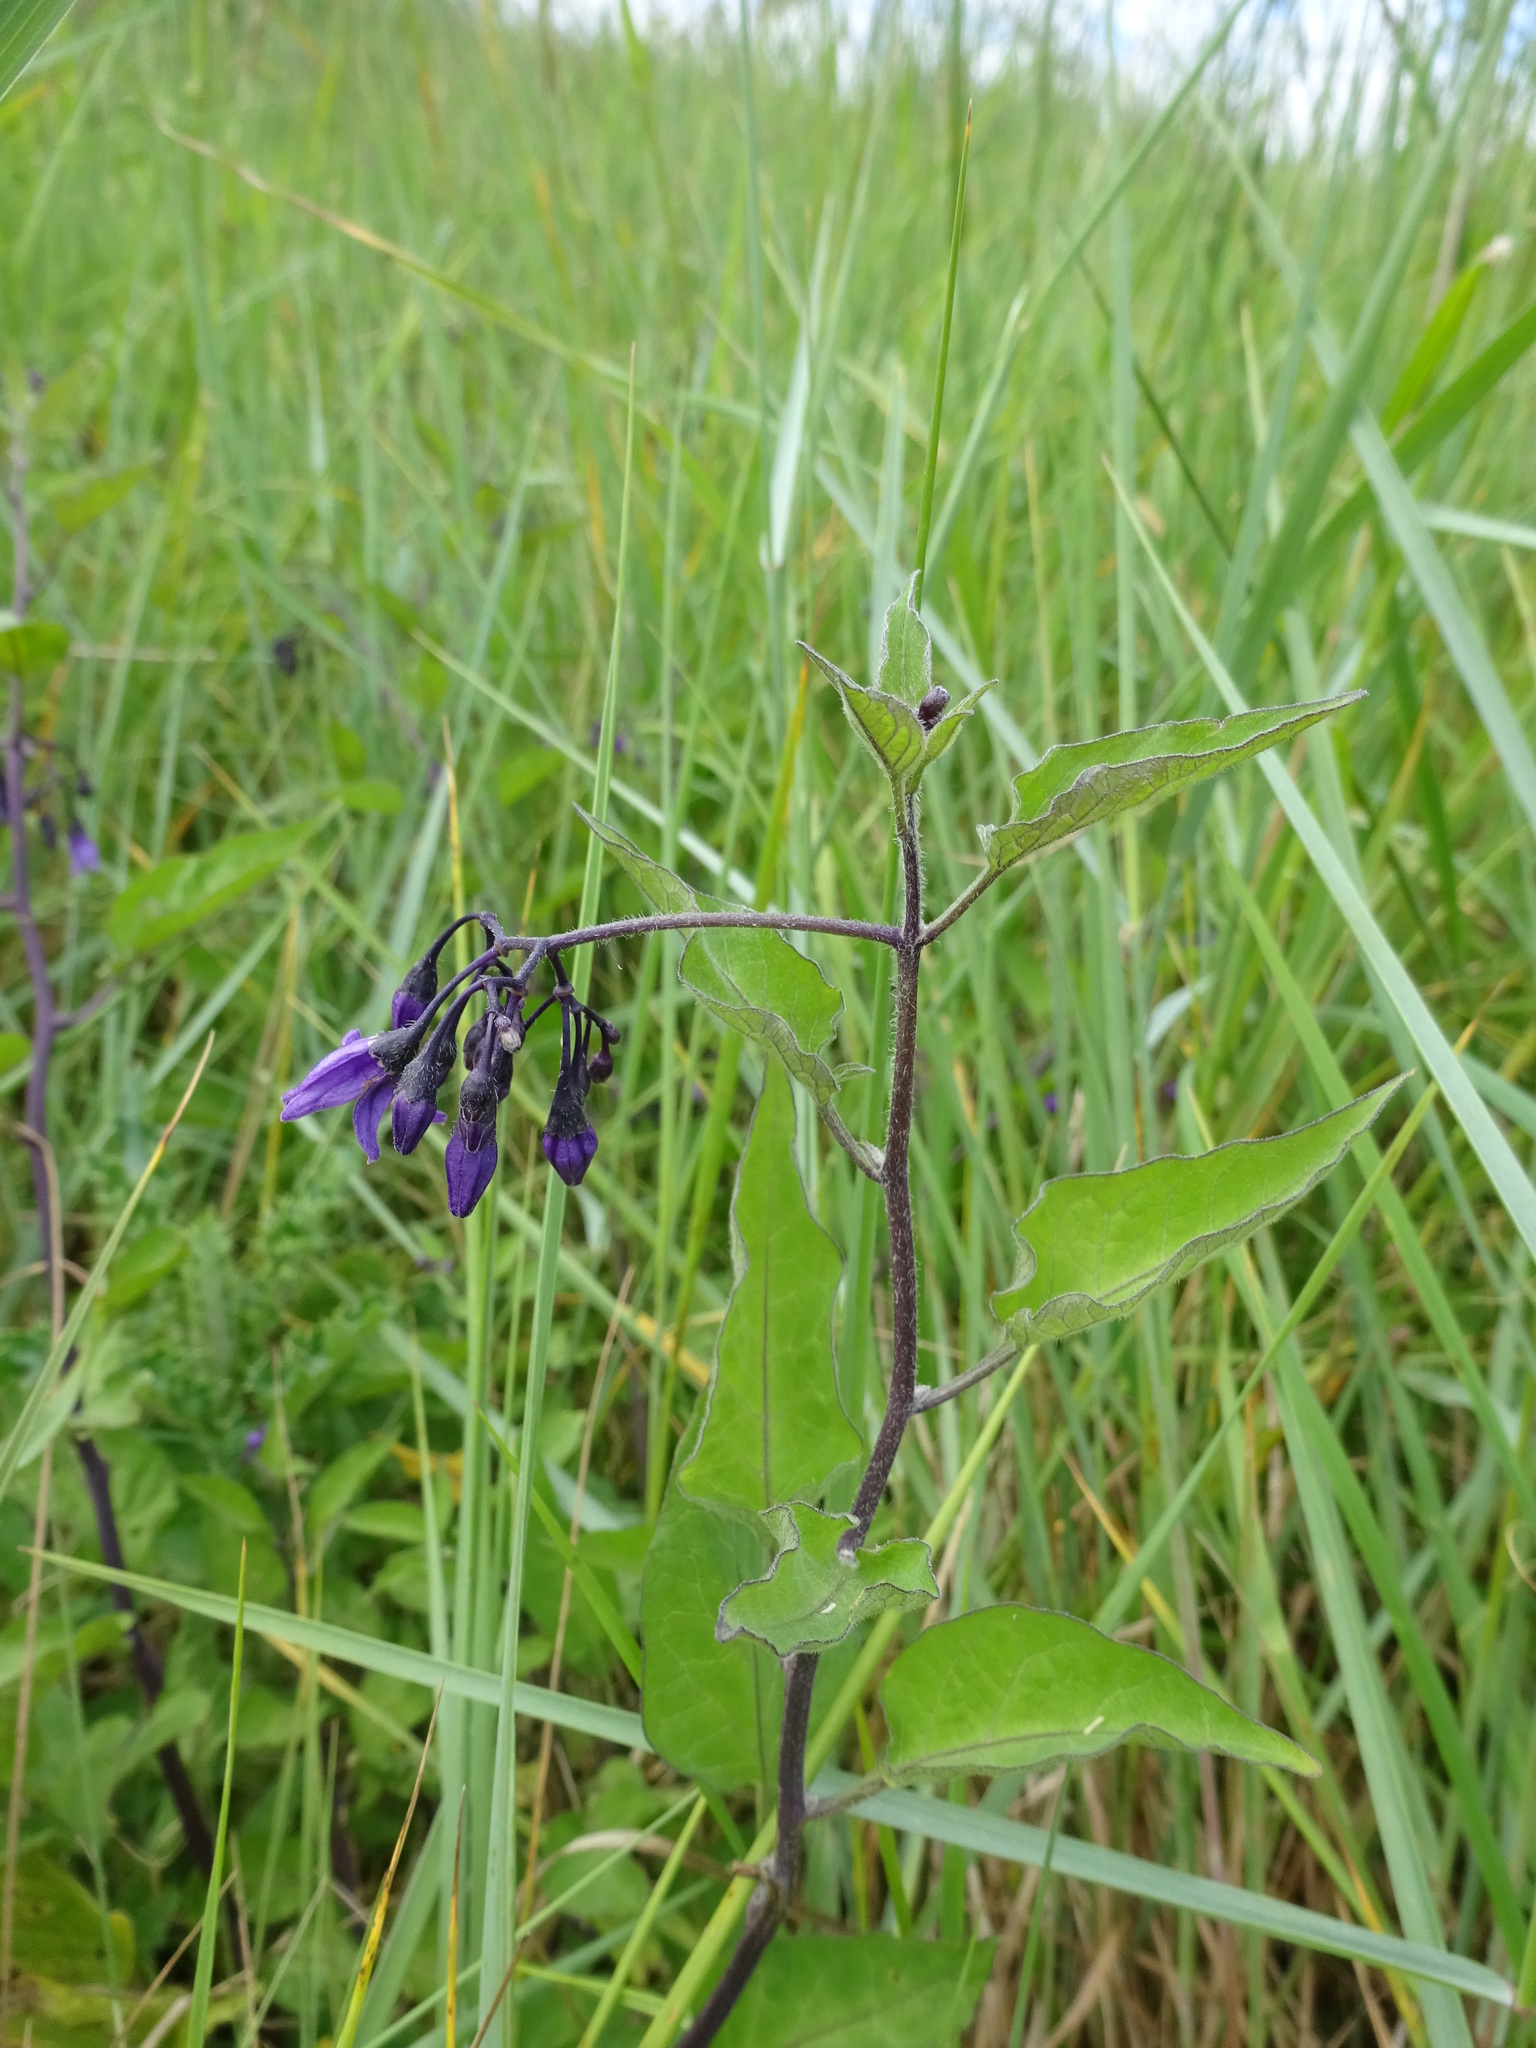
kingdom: Plantae
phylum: Tracheophyta
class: Magnoliopsida
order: Solanales
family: Solanaceae
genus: Solanum
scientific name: Solanum dulcamara
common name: Climbing nightshade
